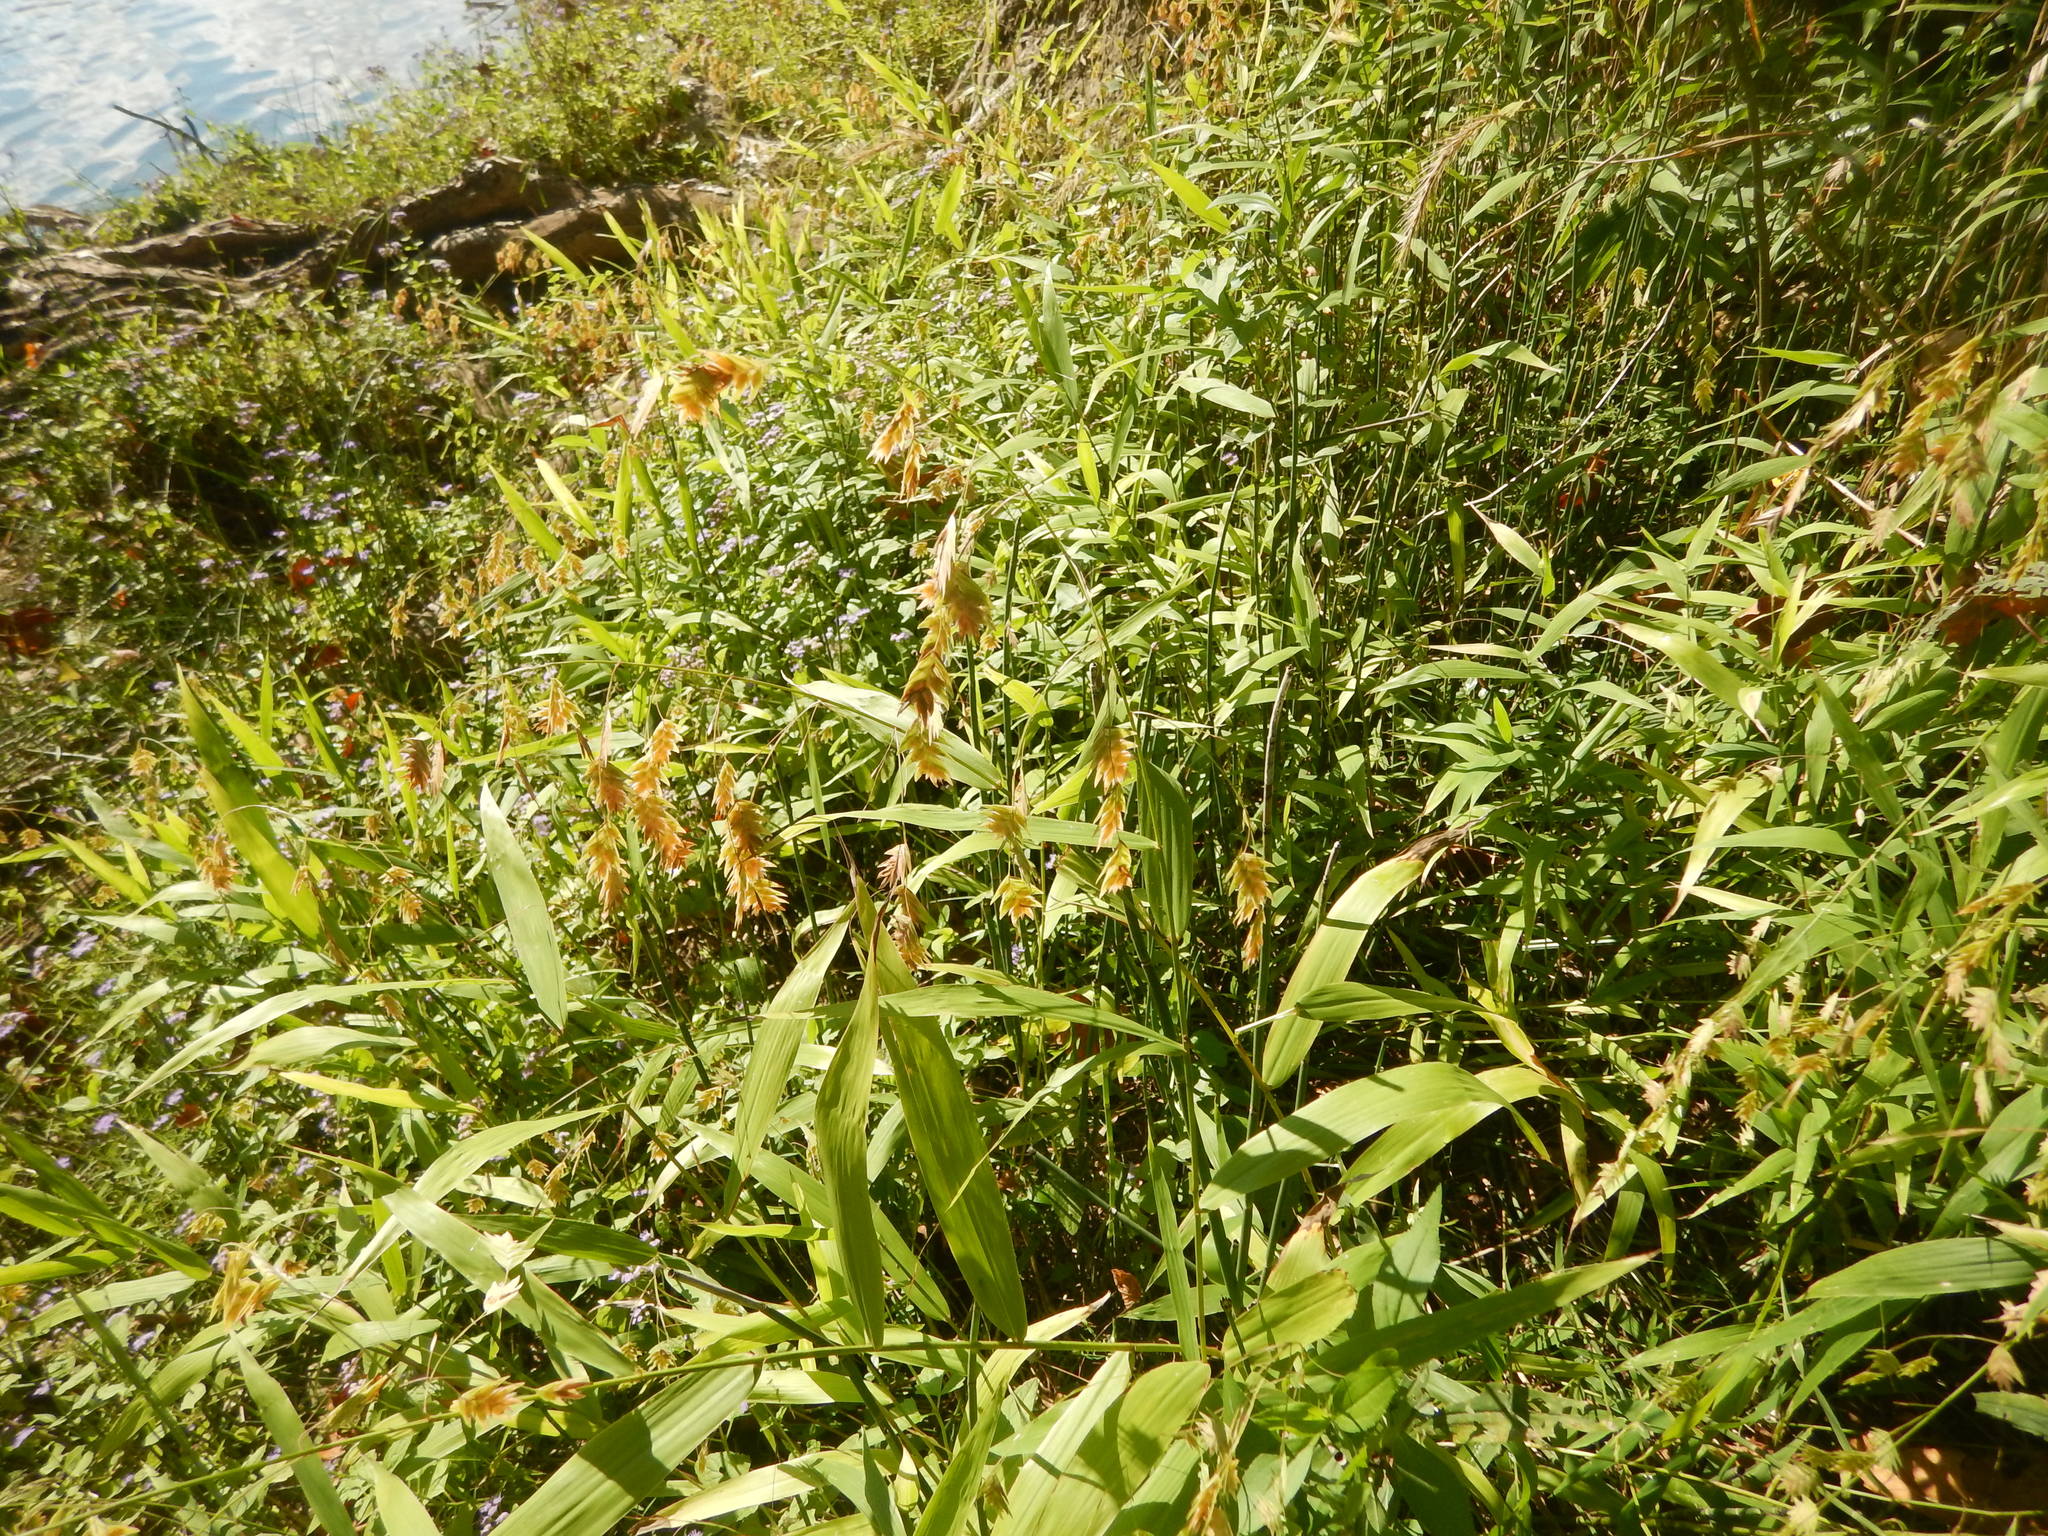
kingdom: Plantae
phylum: Tracheophyta
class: Liliopsida
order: Poales
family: Poaceae
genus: Chasmanthium
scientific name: Chasmanthium latifolium
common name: Broad-leaved chasmanthium
